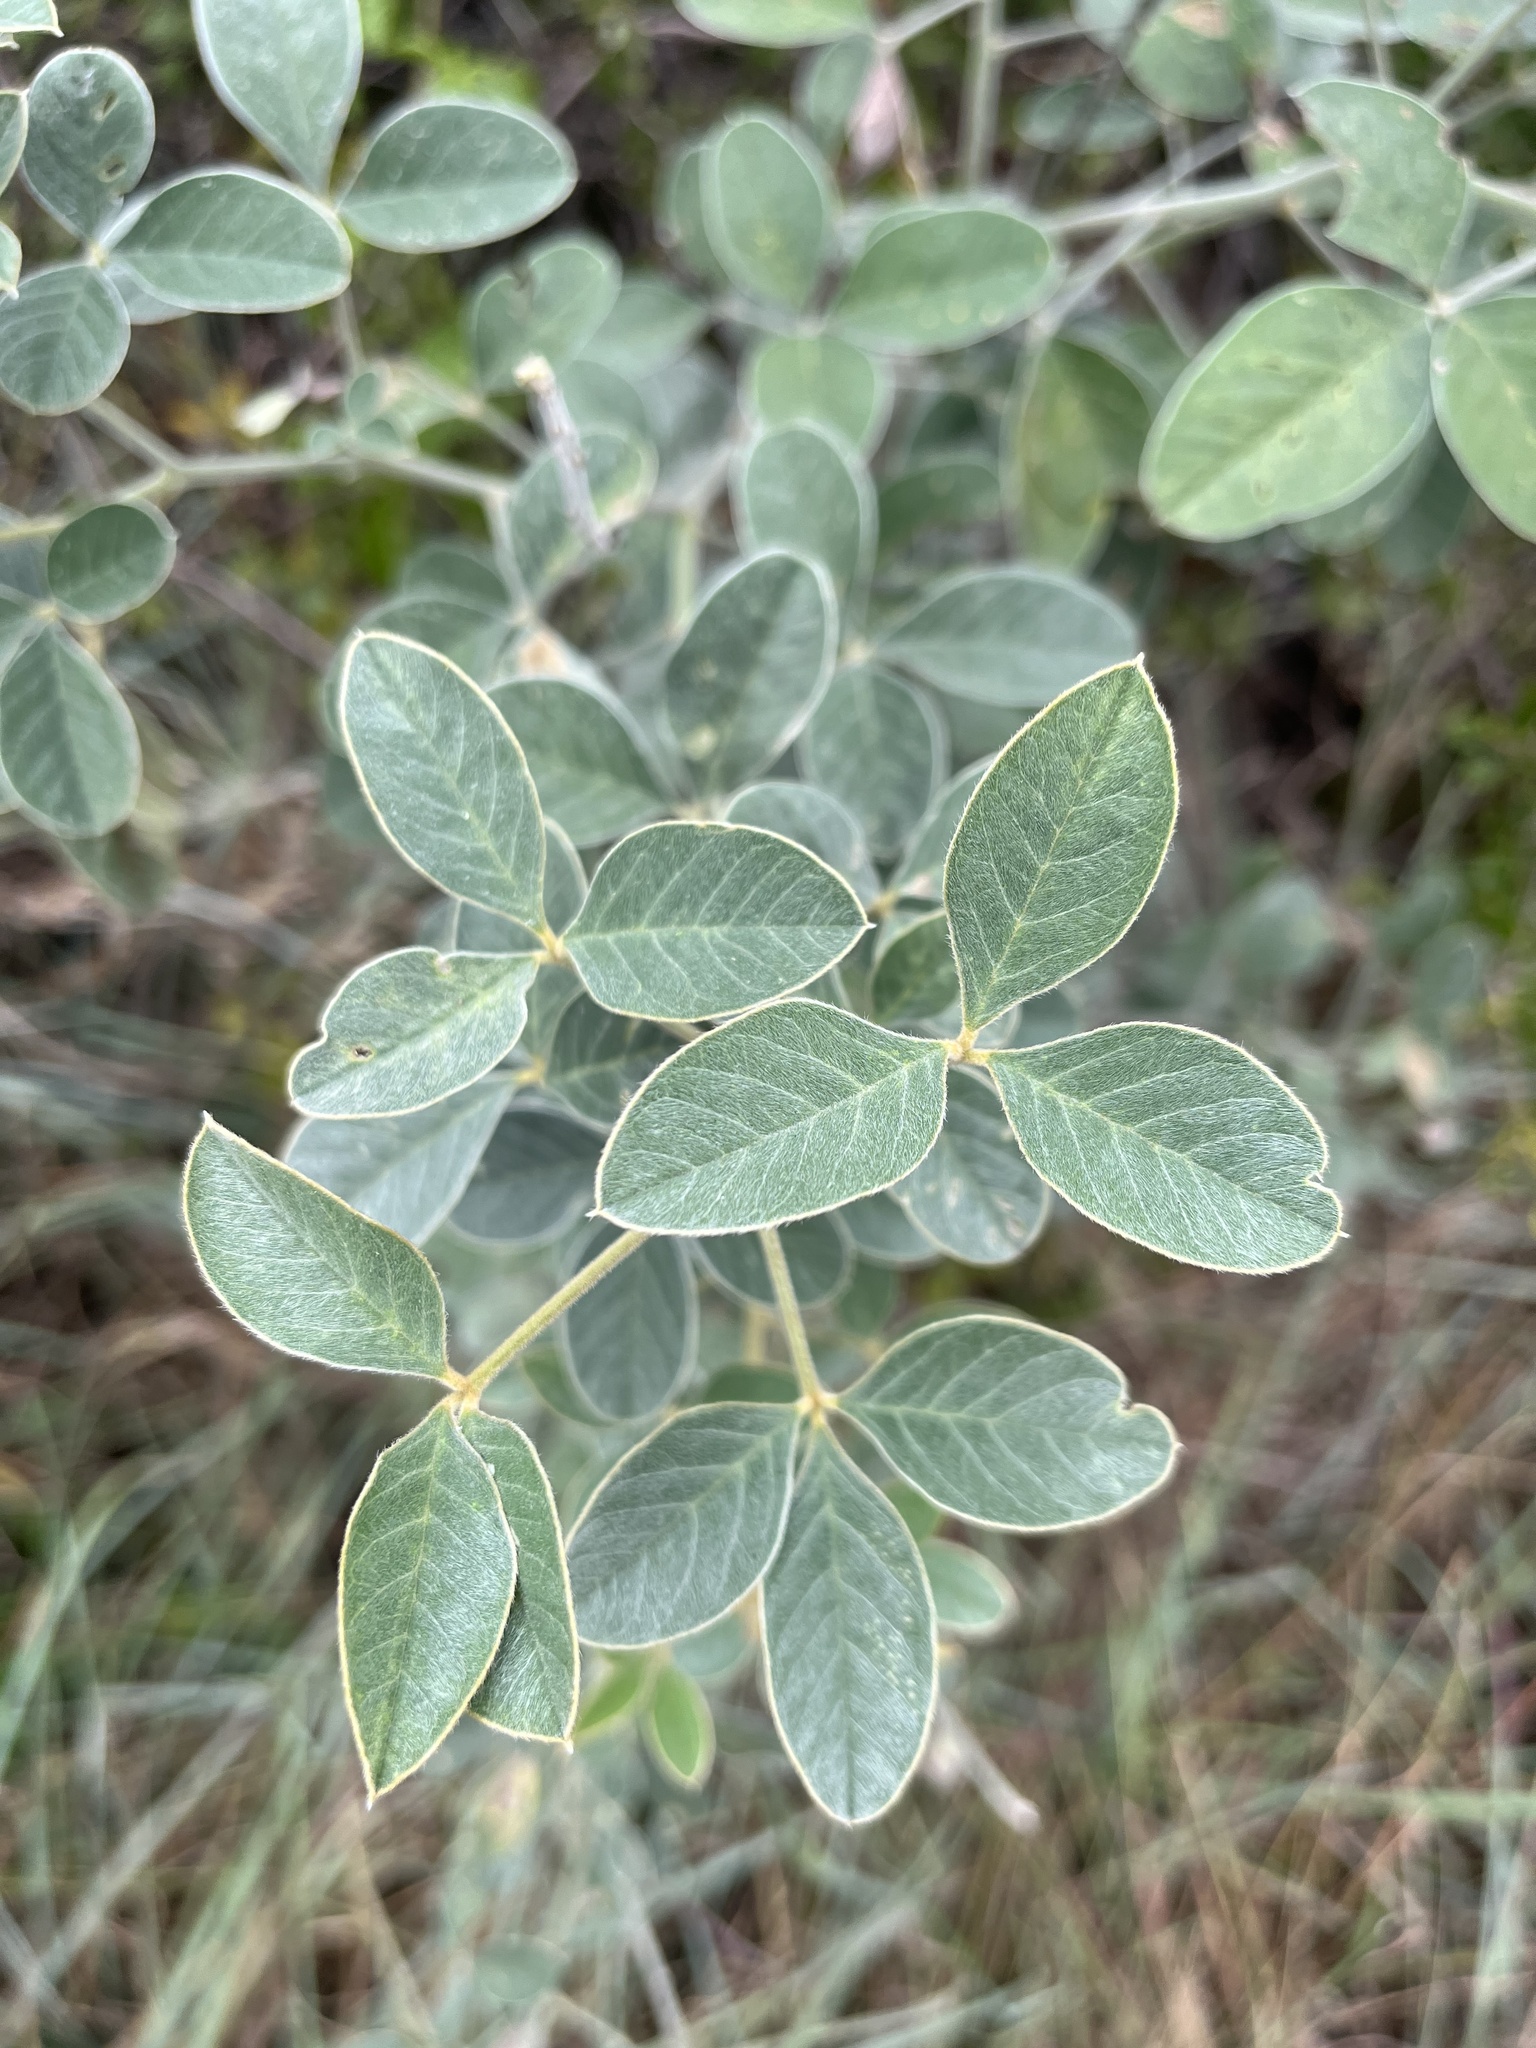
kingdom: Plantae
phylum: Tracheophyta
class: Magnoliopsida
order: Fabales
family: Fabaceae
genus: Crotalaria
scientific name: Crotalaria doidgeae
